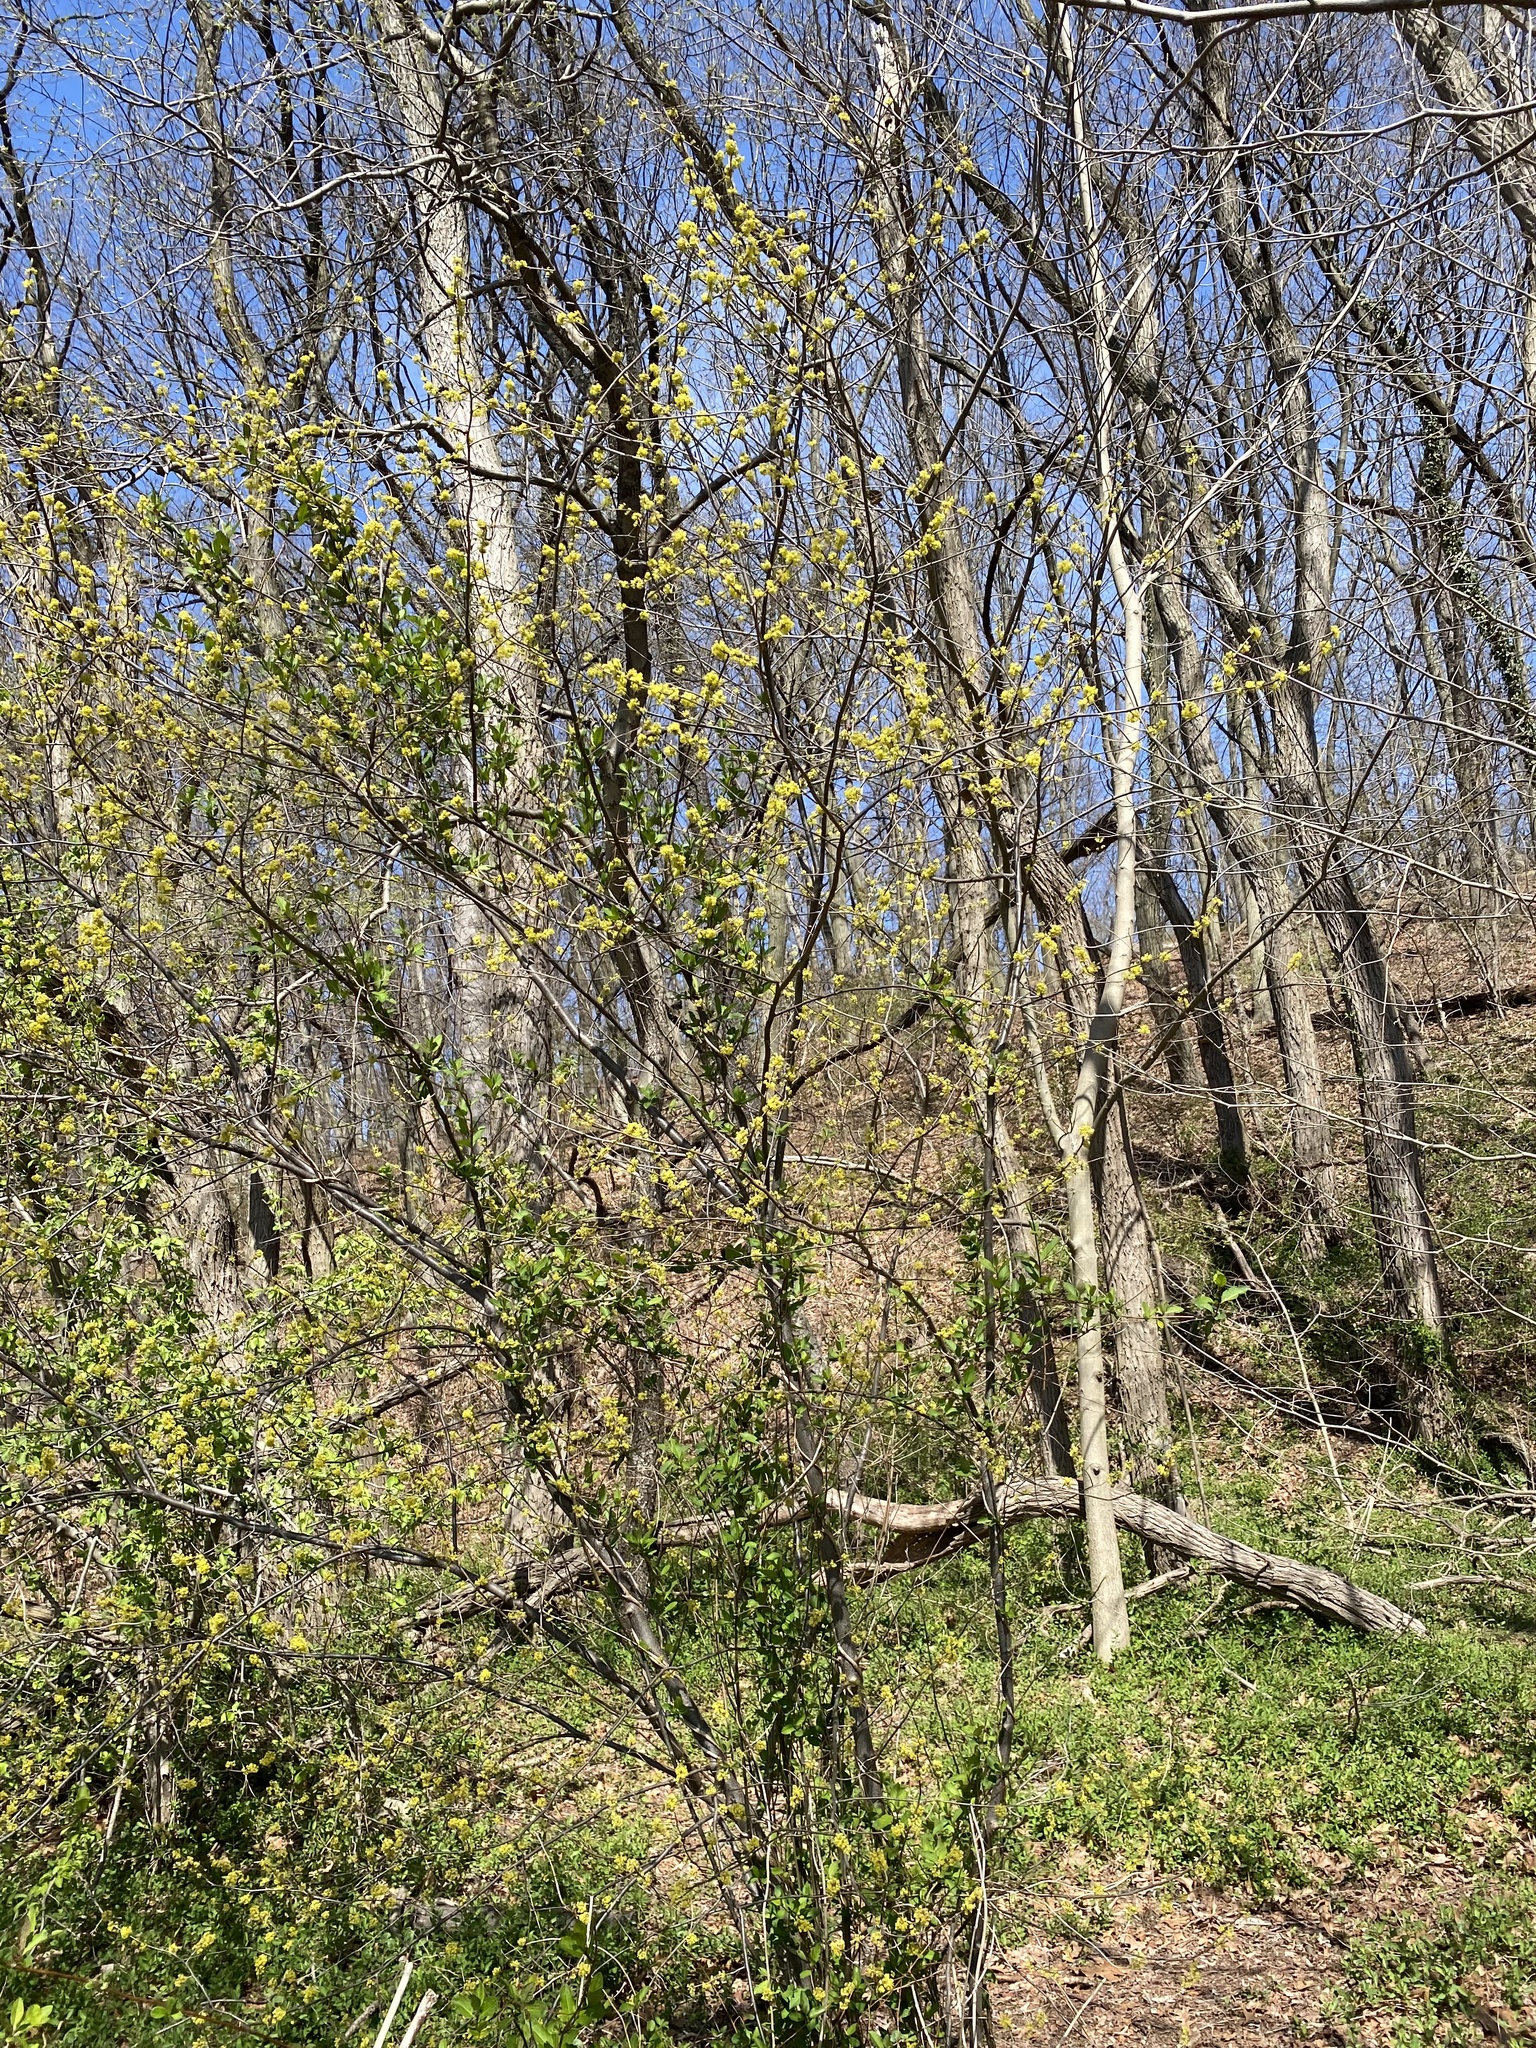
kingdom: Plantae
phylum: Tracheophyta
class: Magnoliopsida
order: Laurales
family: Lauraceae
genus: Lindera
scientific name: Lindera benzoin
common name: Spicebush
